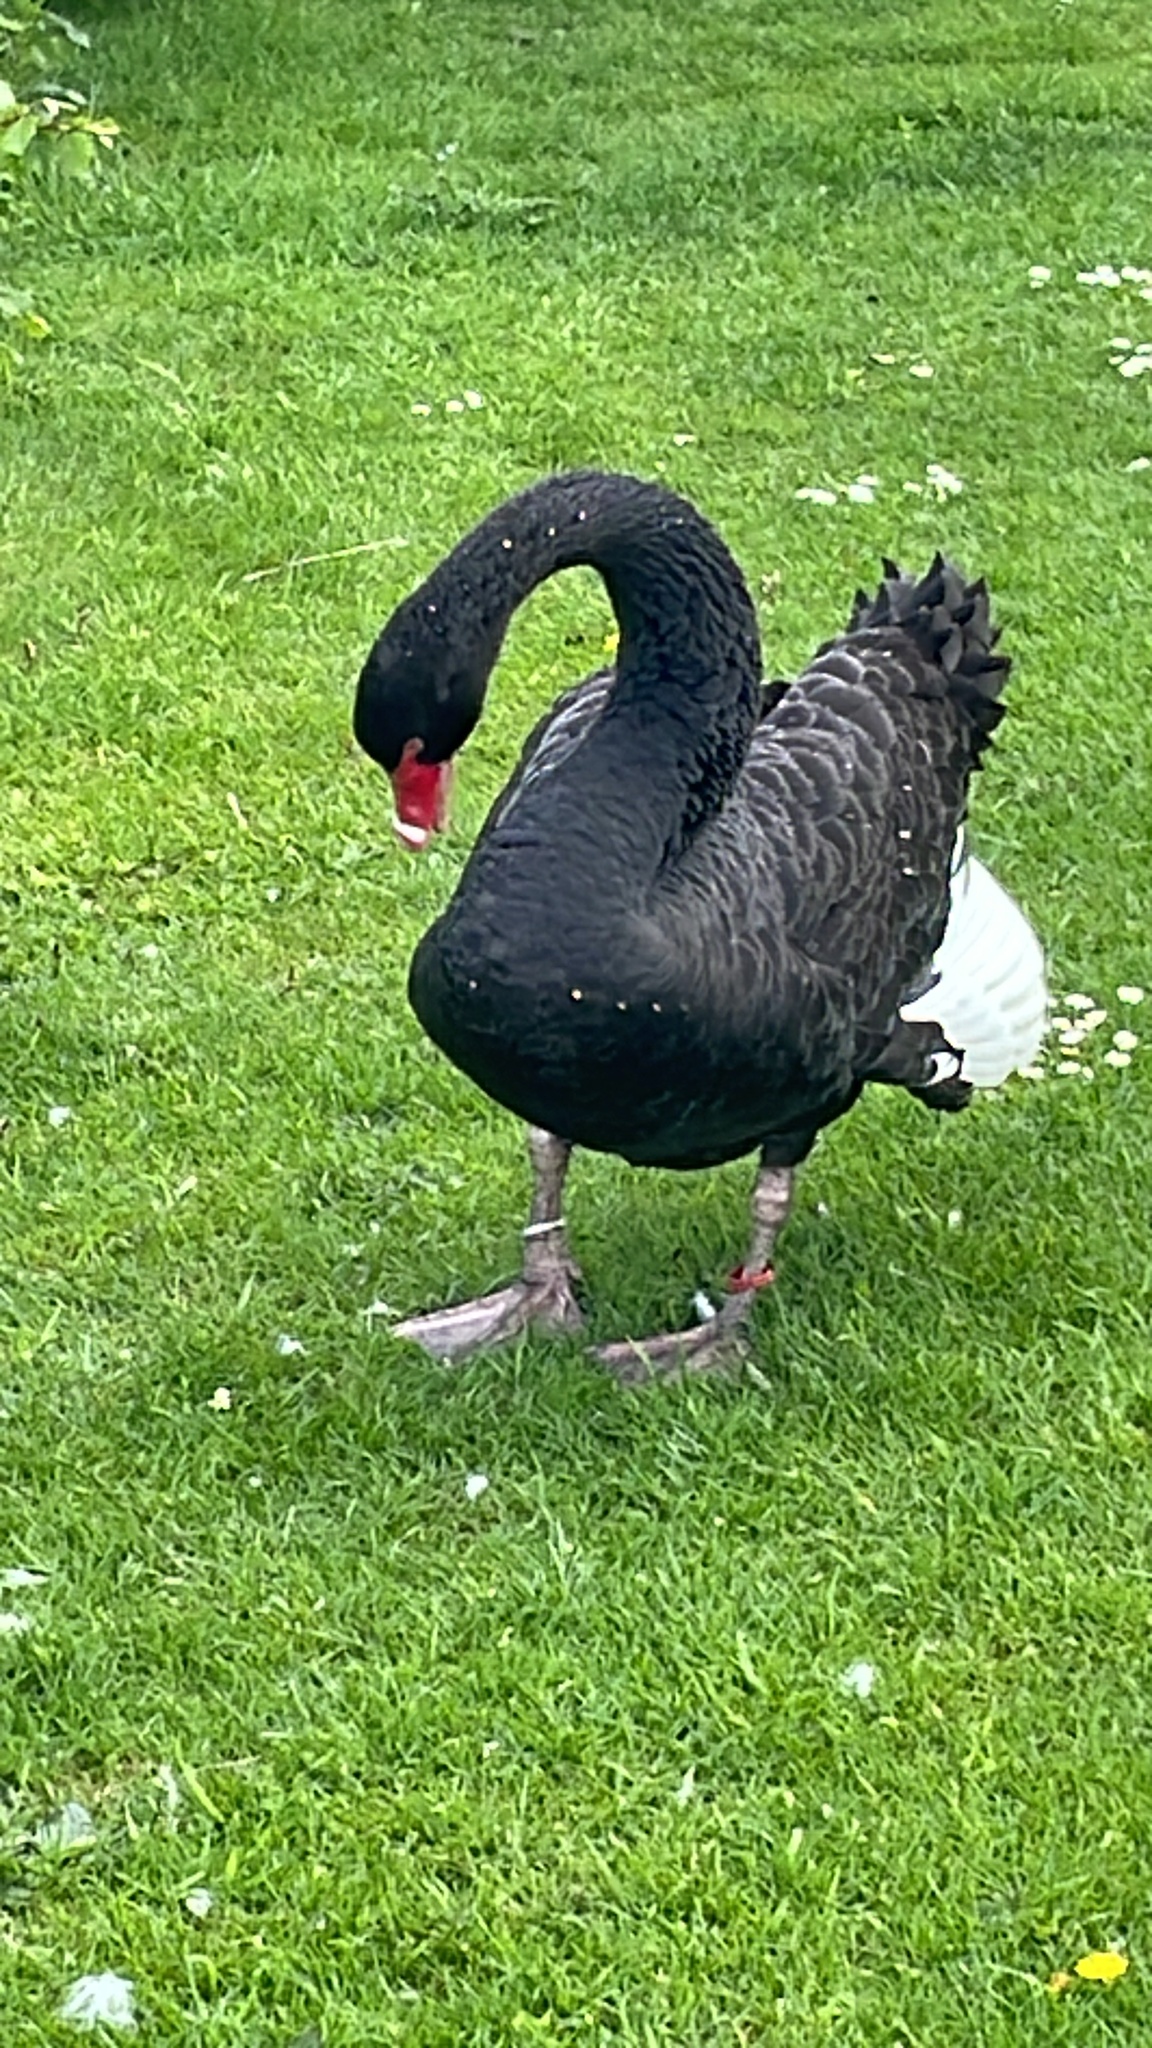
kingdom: Animalia
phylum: Chordata
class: Aves
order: Anseriformes
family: Anatidae
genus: Cygnus
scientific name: Cygnus atratus
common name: Black swan
